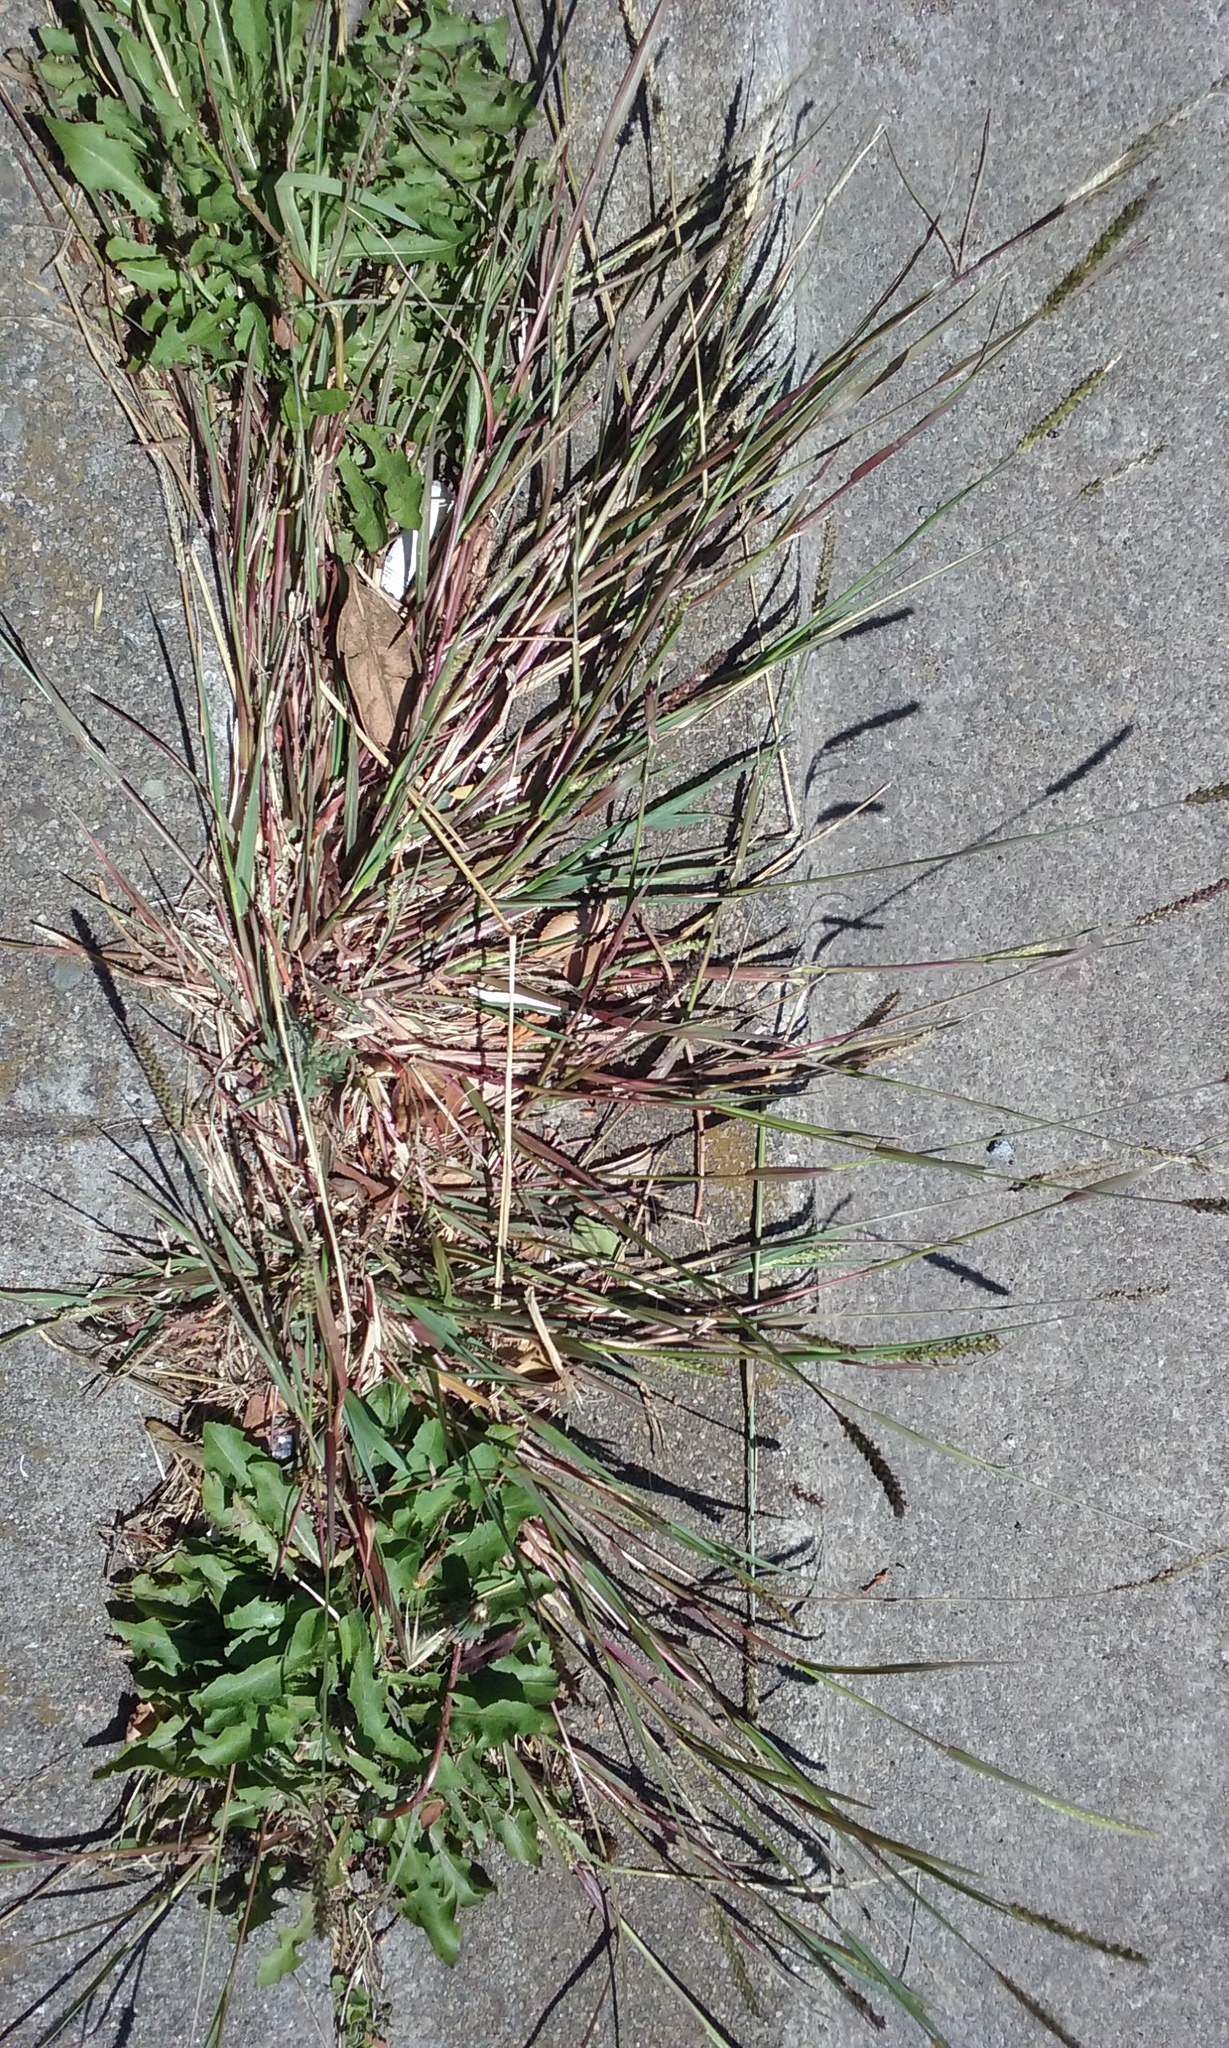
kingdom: Plantae
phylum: Tracheophyta
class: Liliopsida
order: Poales
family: Poaceae
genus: Setaria
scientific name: Setaria parviflora
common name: Knotroot bristle-grass
